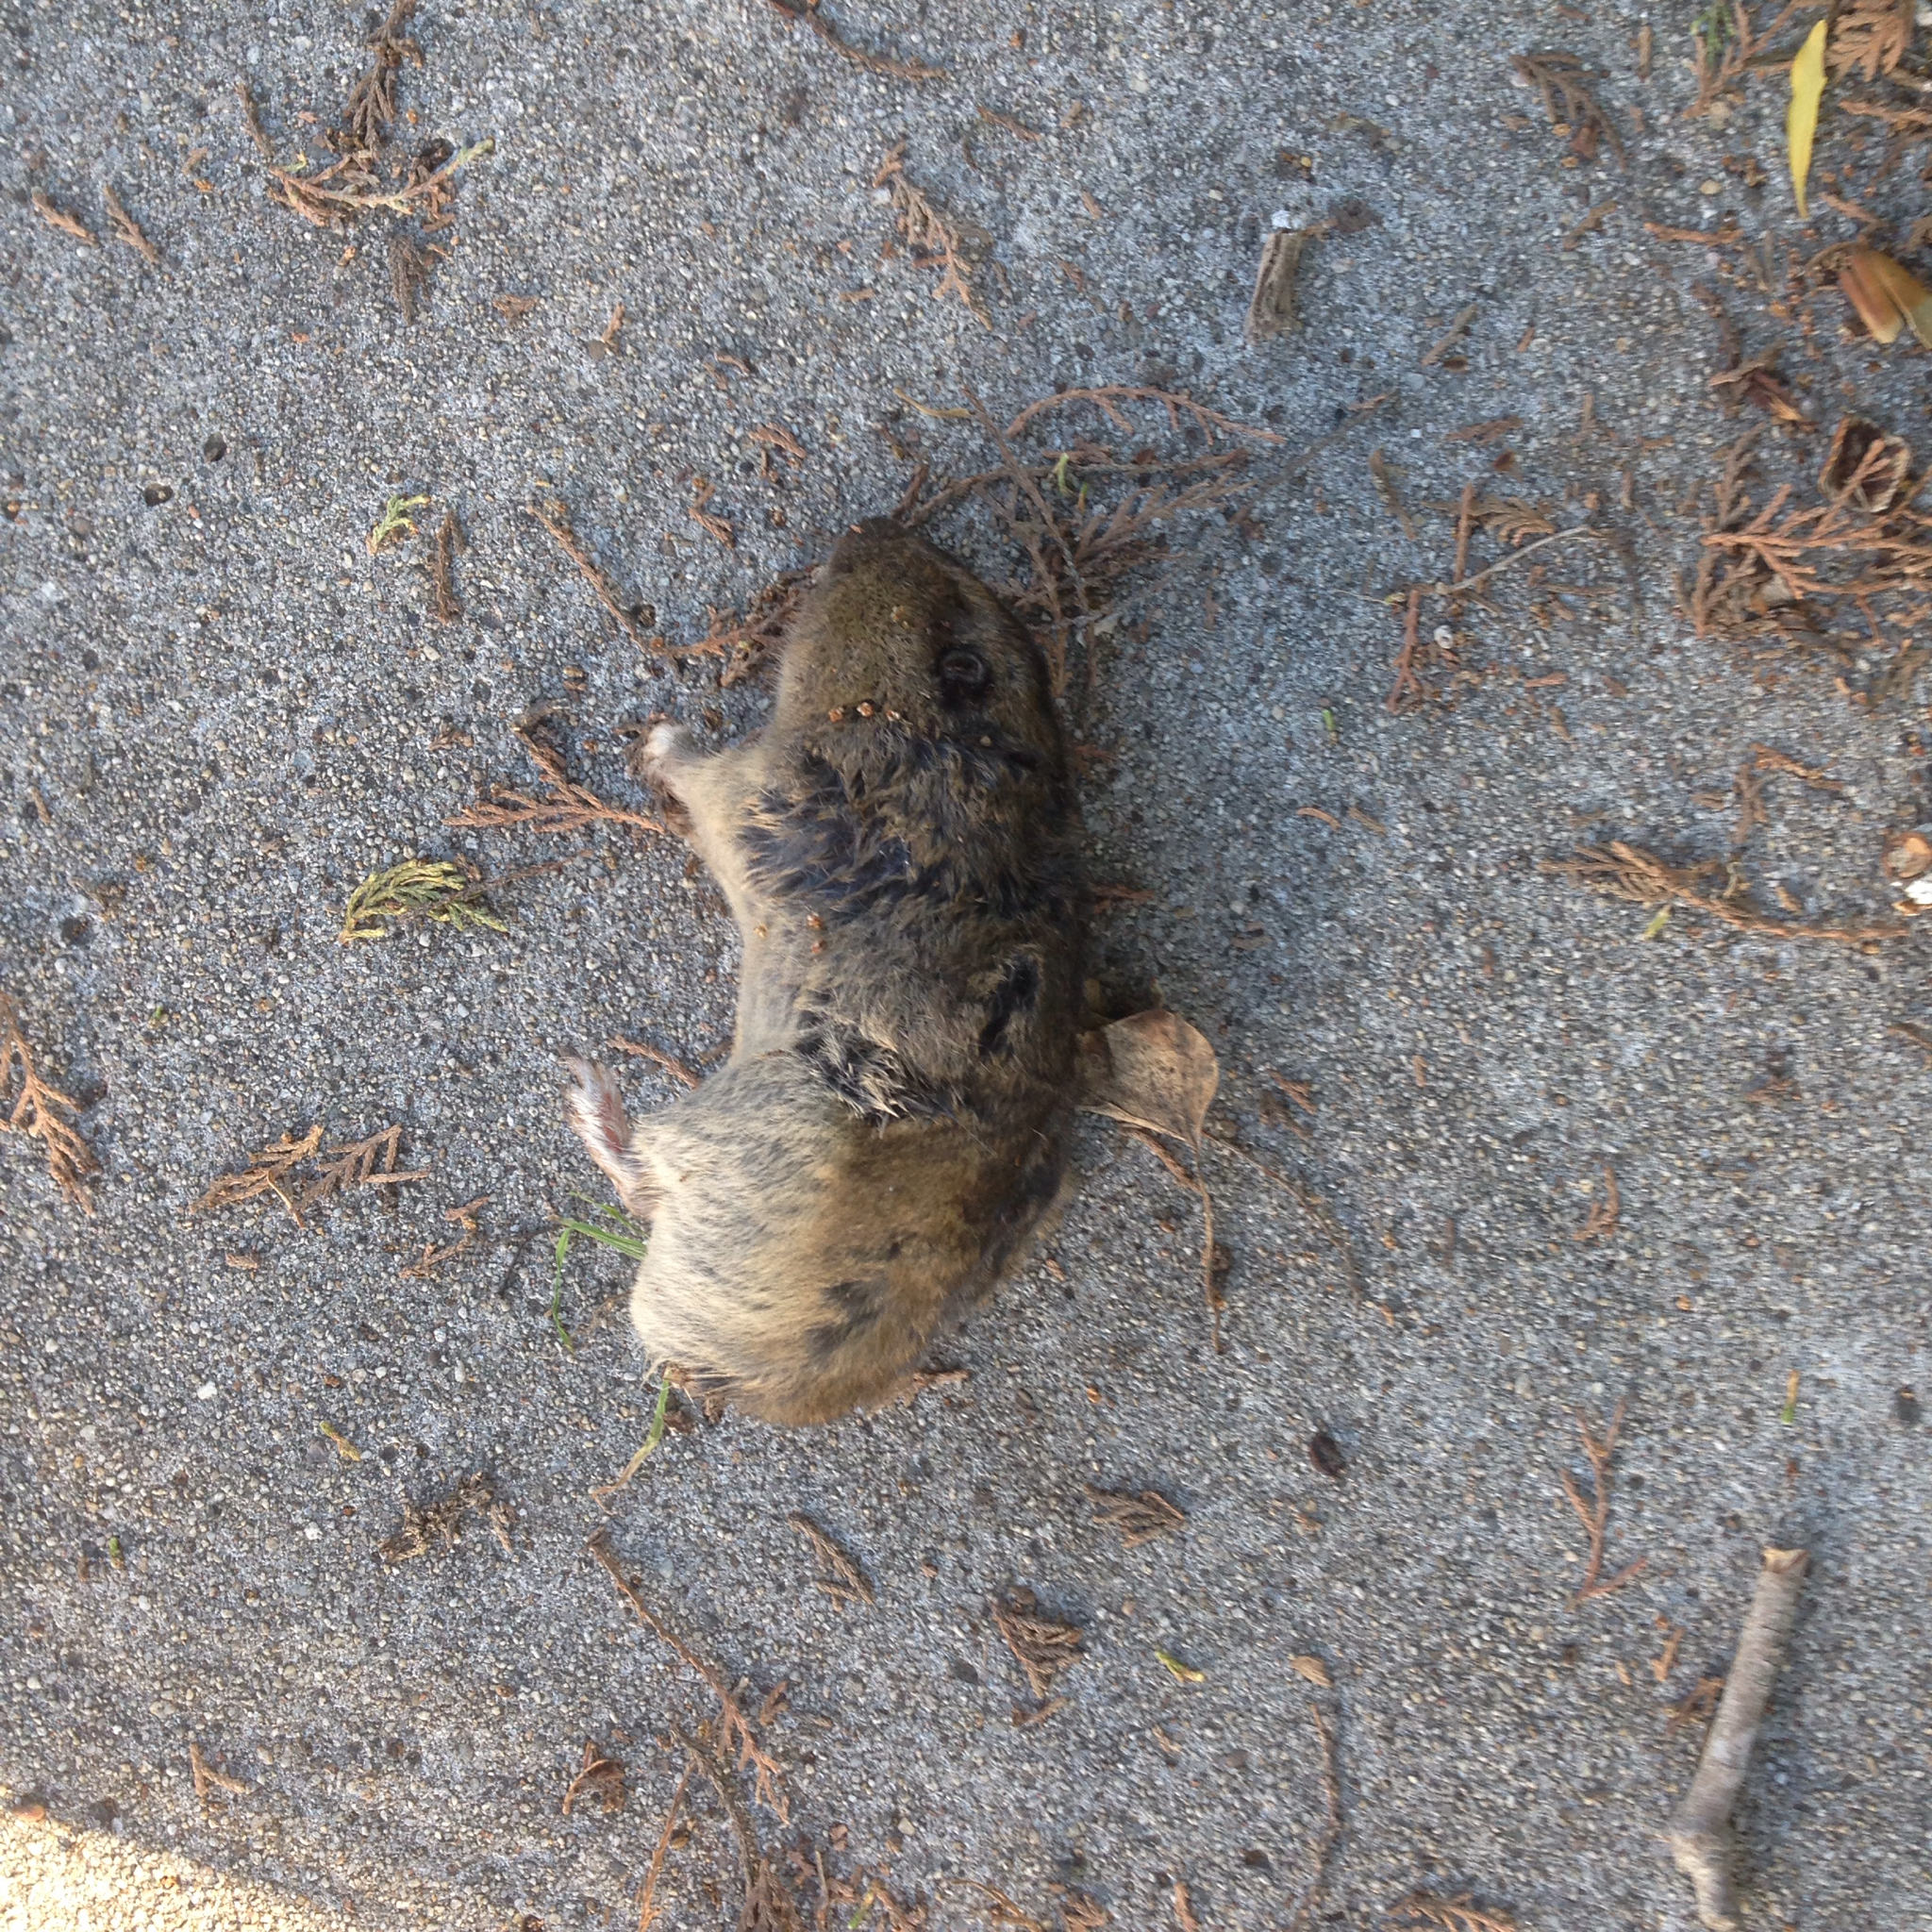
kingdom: Animalia
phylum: Chordata
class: Mammalia
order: Rodentia
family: Geomyidae
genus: Thomomys
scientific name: Thomomys bottae
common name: Botta's pocket gopher
